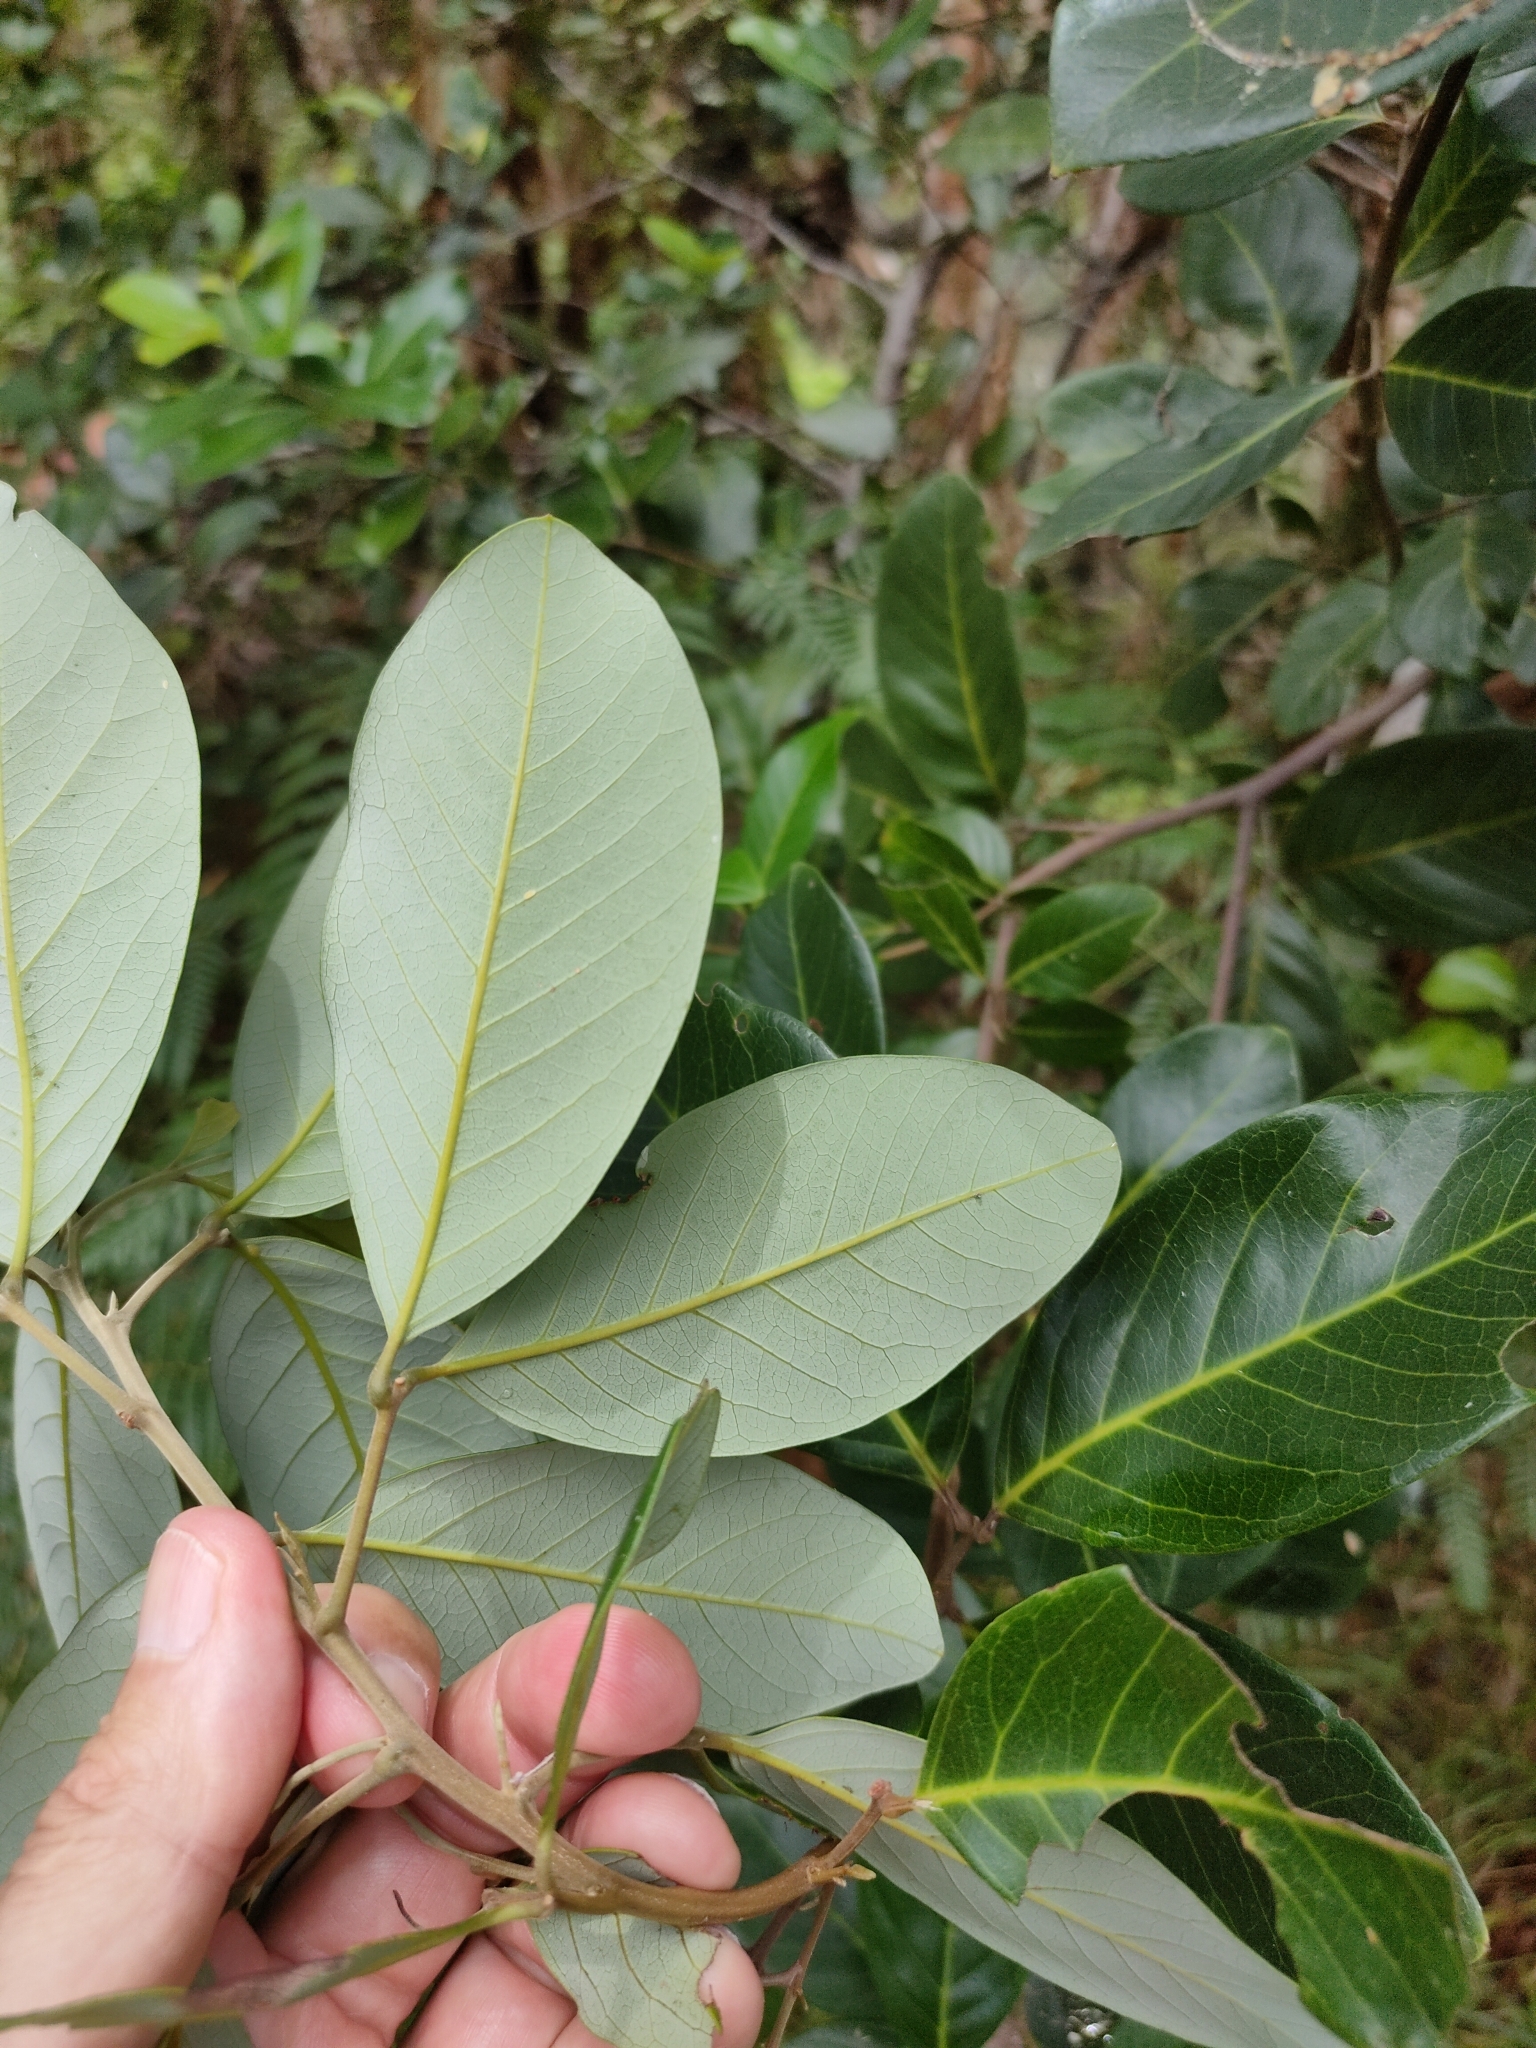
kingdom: Plantae
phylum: Tracheophyta
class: Magnoliopsida
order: Sapindales
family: Sapindaceae
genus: Alectryon
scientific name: Alectryon coriaceus
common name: Beach alectryon
